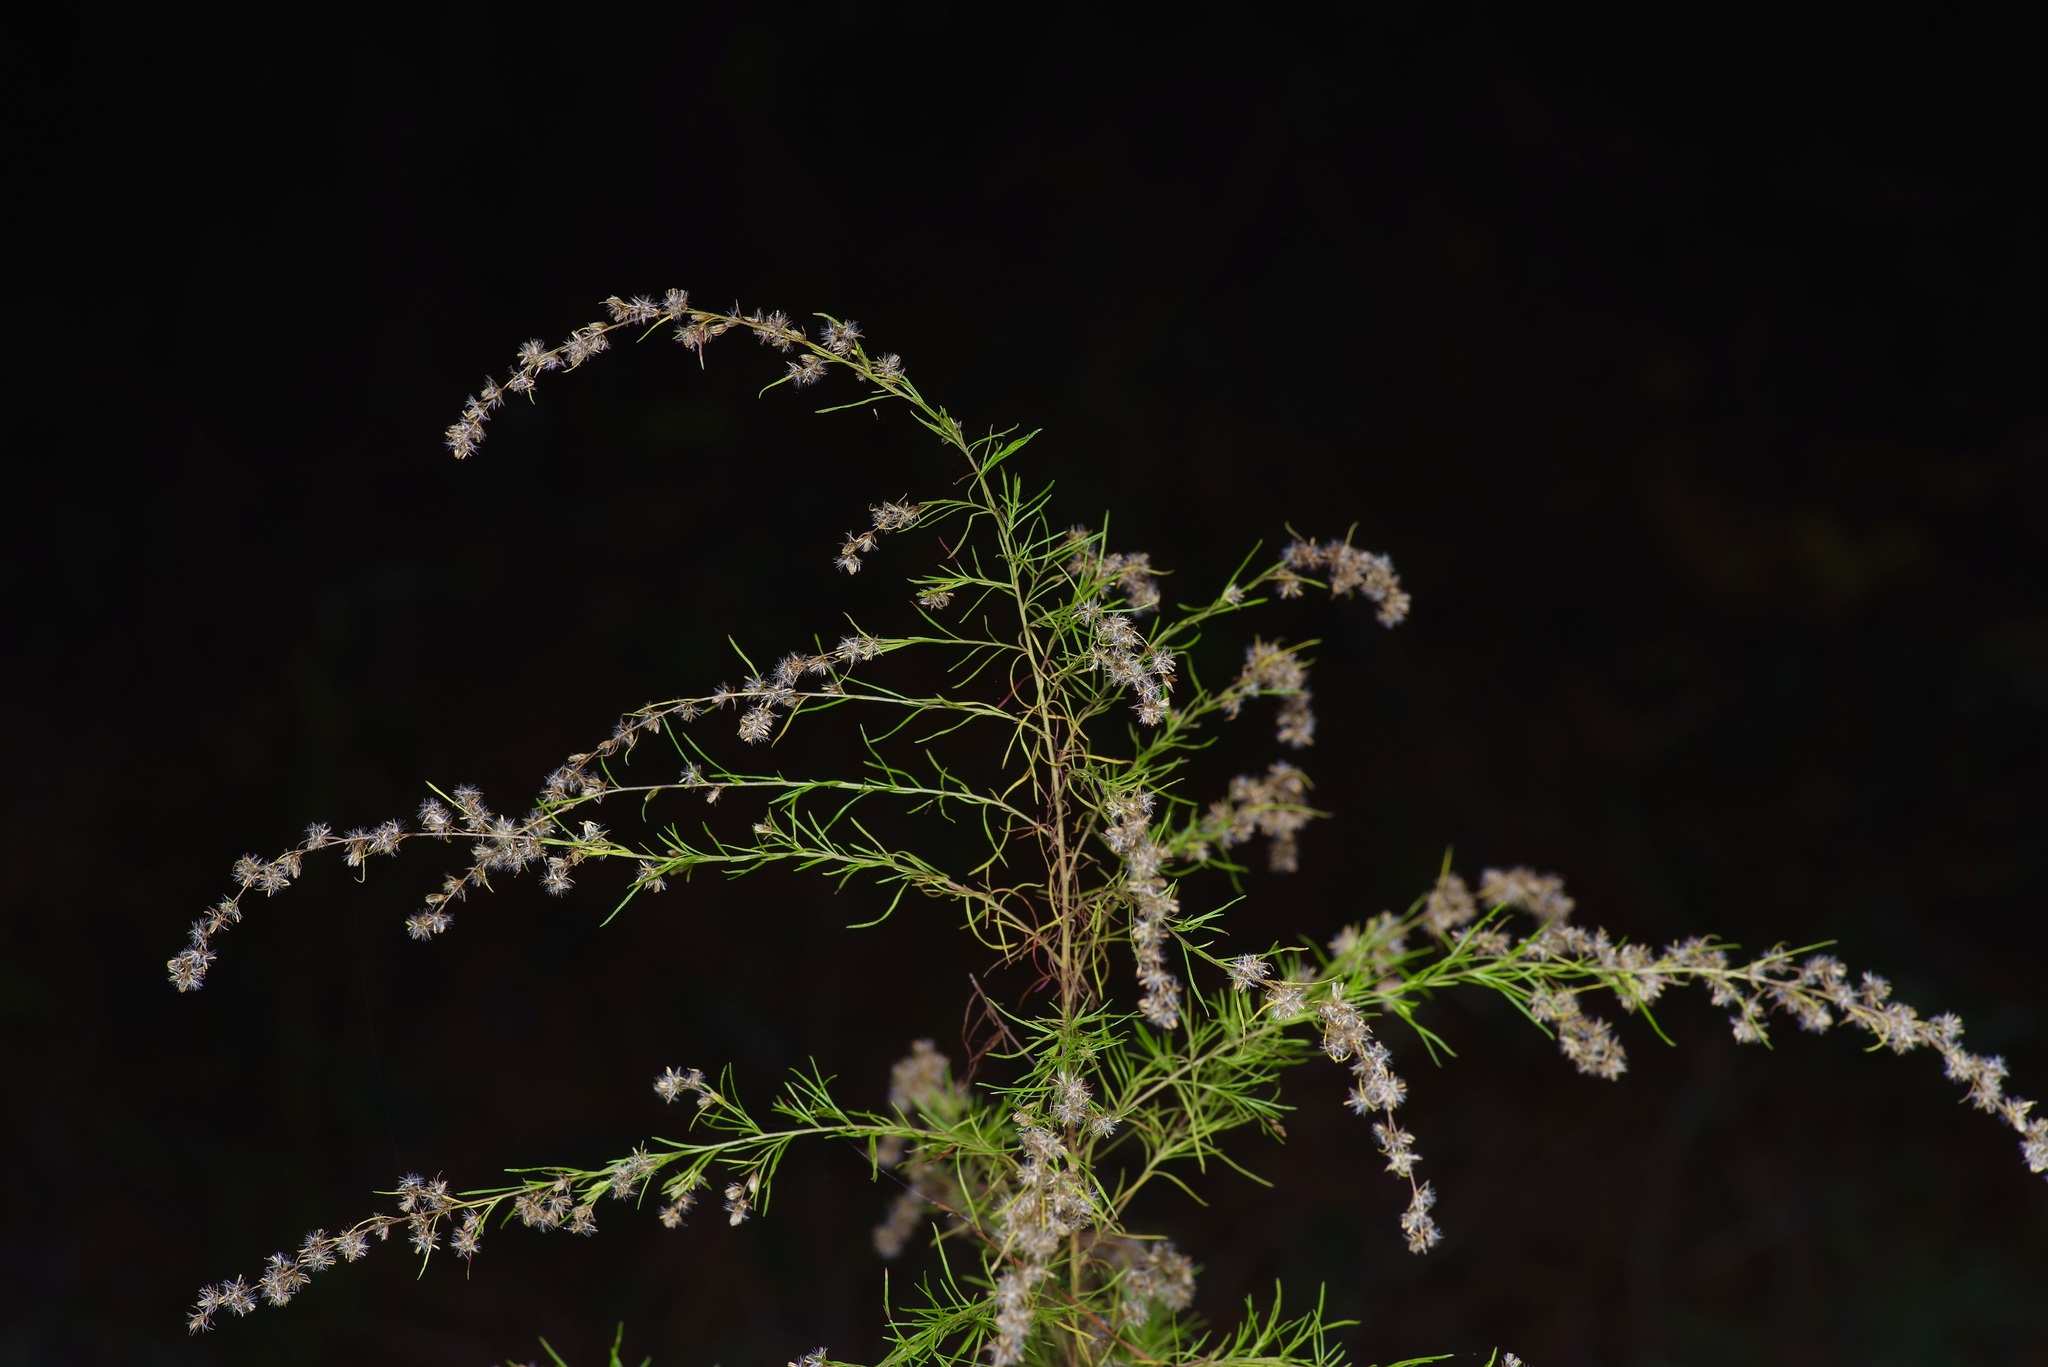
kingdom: Plantae
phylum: Tracheophyta
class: Magnoliopsida
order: Asterales
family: Asteraceae
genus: Eupatorium
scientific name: Eupatorium capillifolium
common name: Dog-fennel
